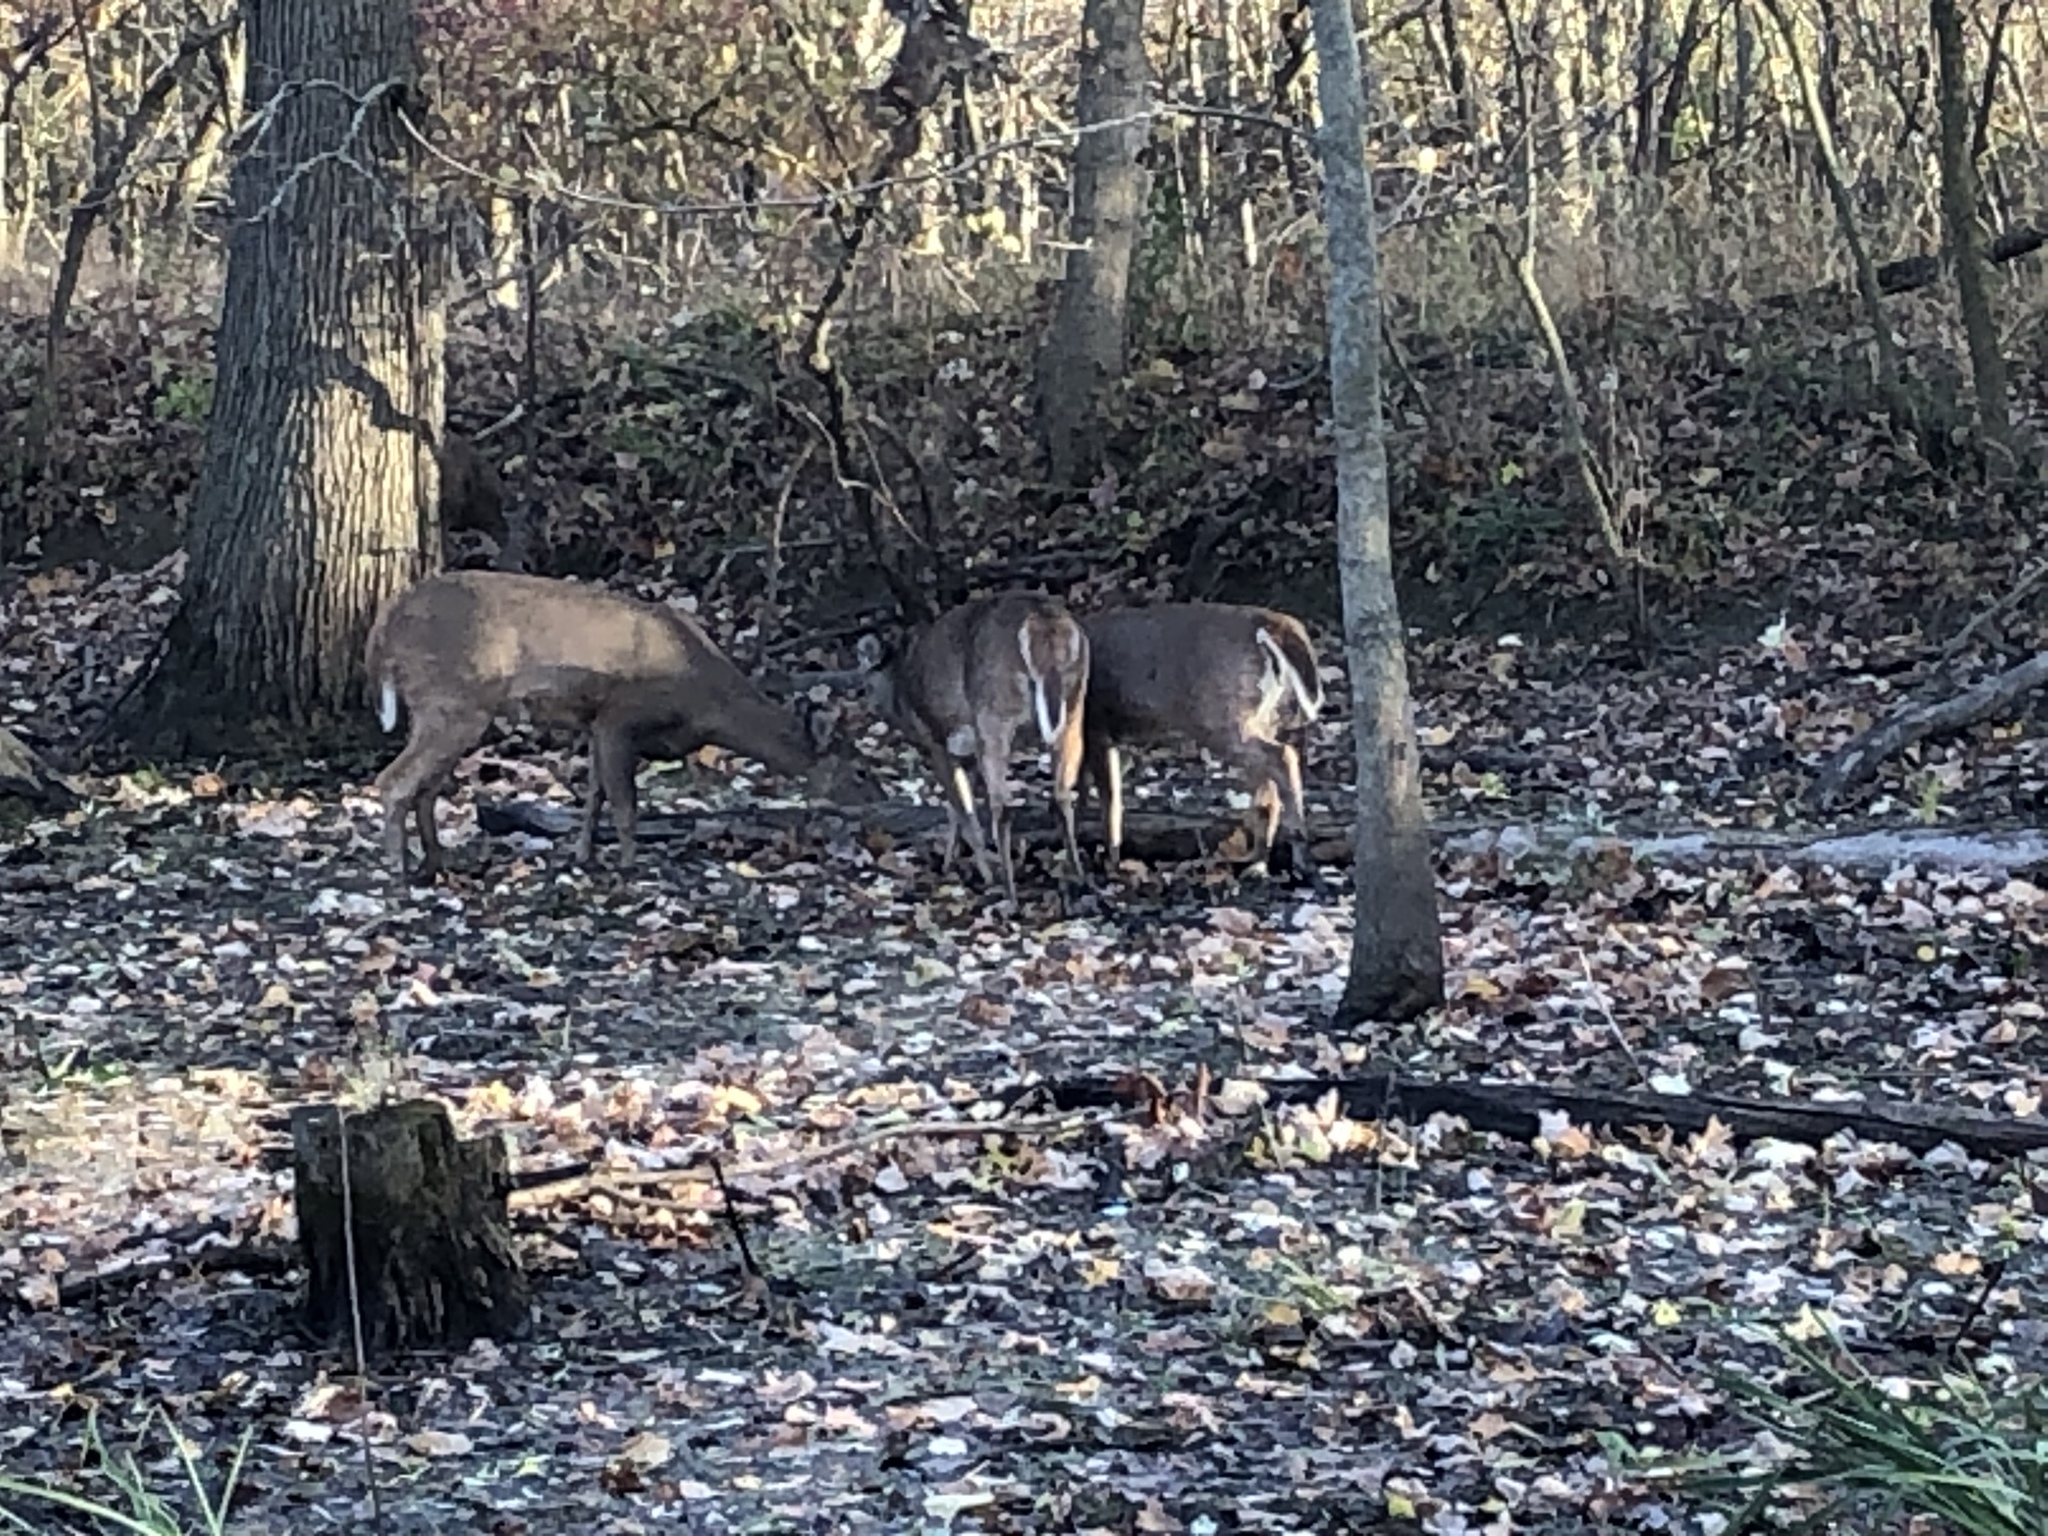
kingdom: Animalia
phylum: Chordata
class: Mammalia
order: Artiodactyla
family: Cervidae
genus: Odocoileus
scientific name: Odocoileus virginianus
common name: White-tailed deer
